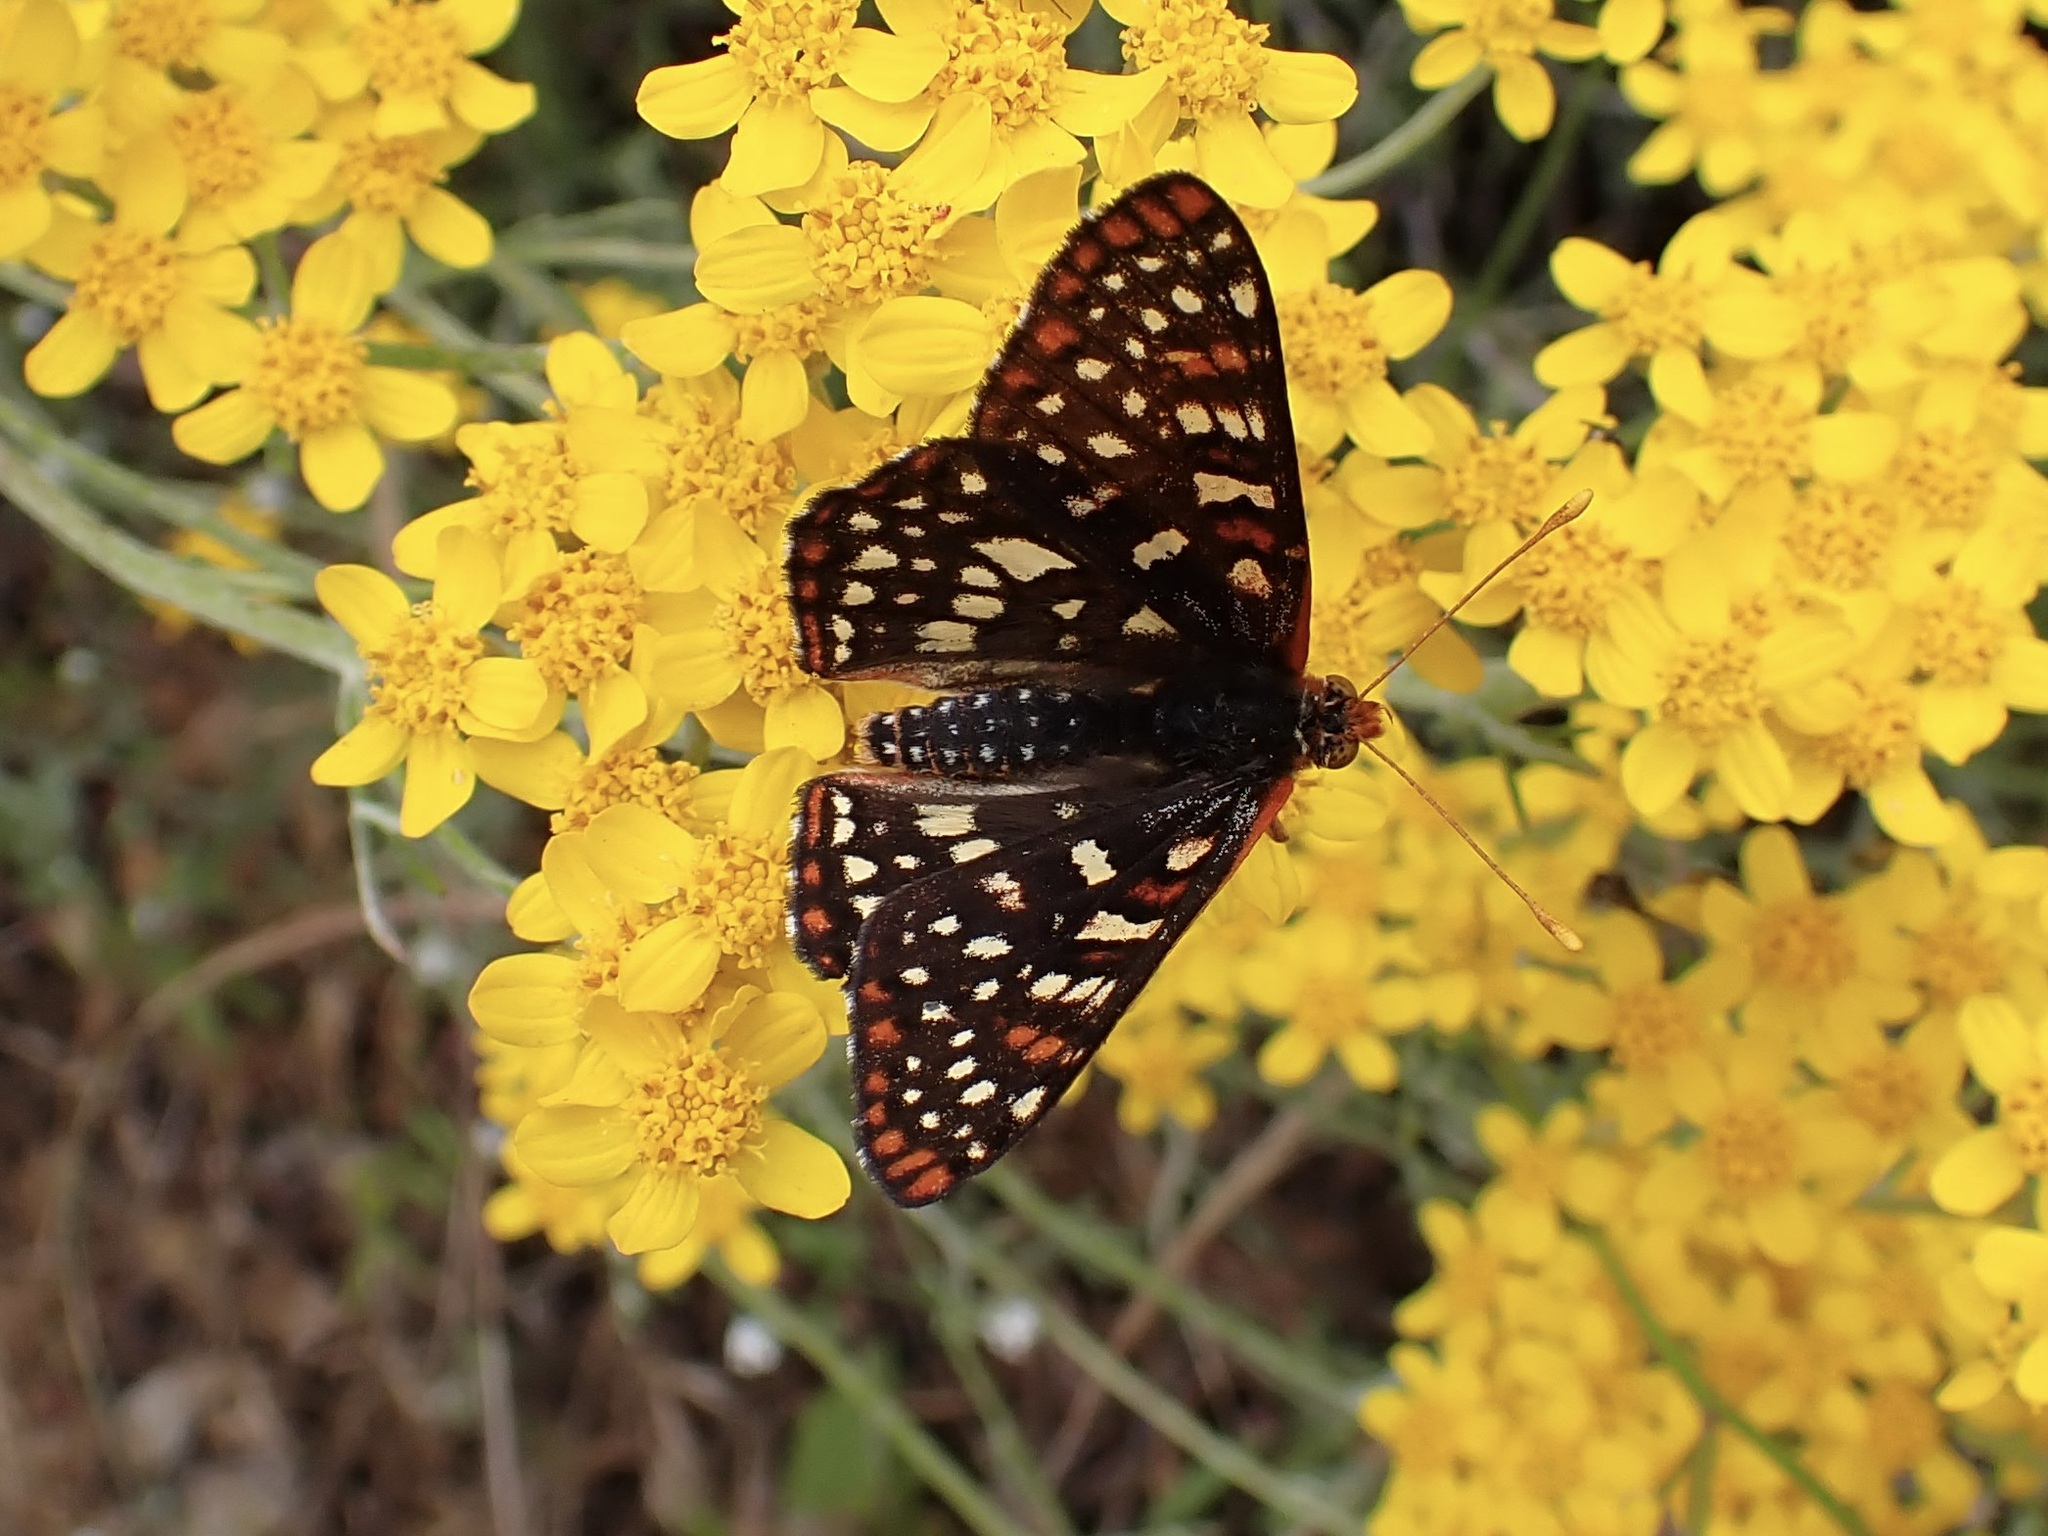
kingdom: Animalia
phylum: Arthropoda
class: Insecta
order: Lepidoptera
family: Nymphalidae
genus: Occidryas
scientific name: Occidryas chalcedona
